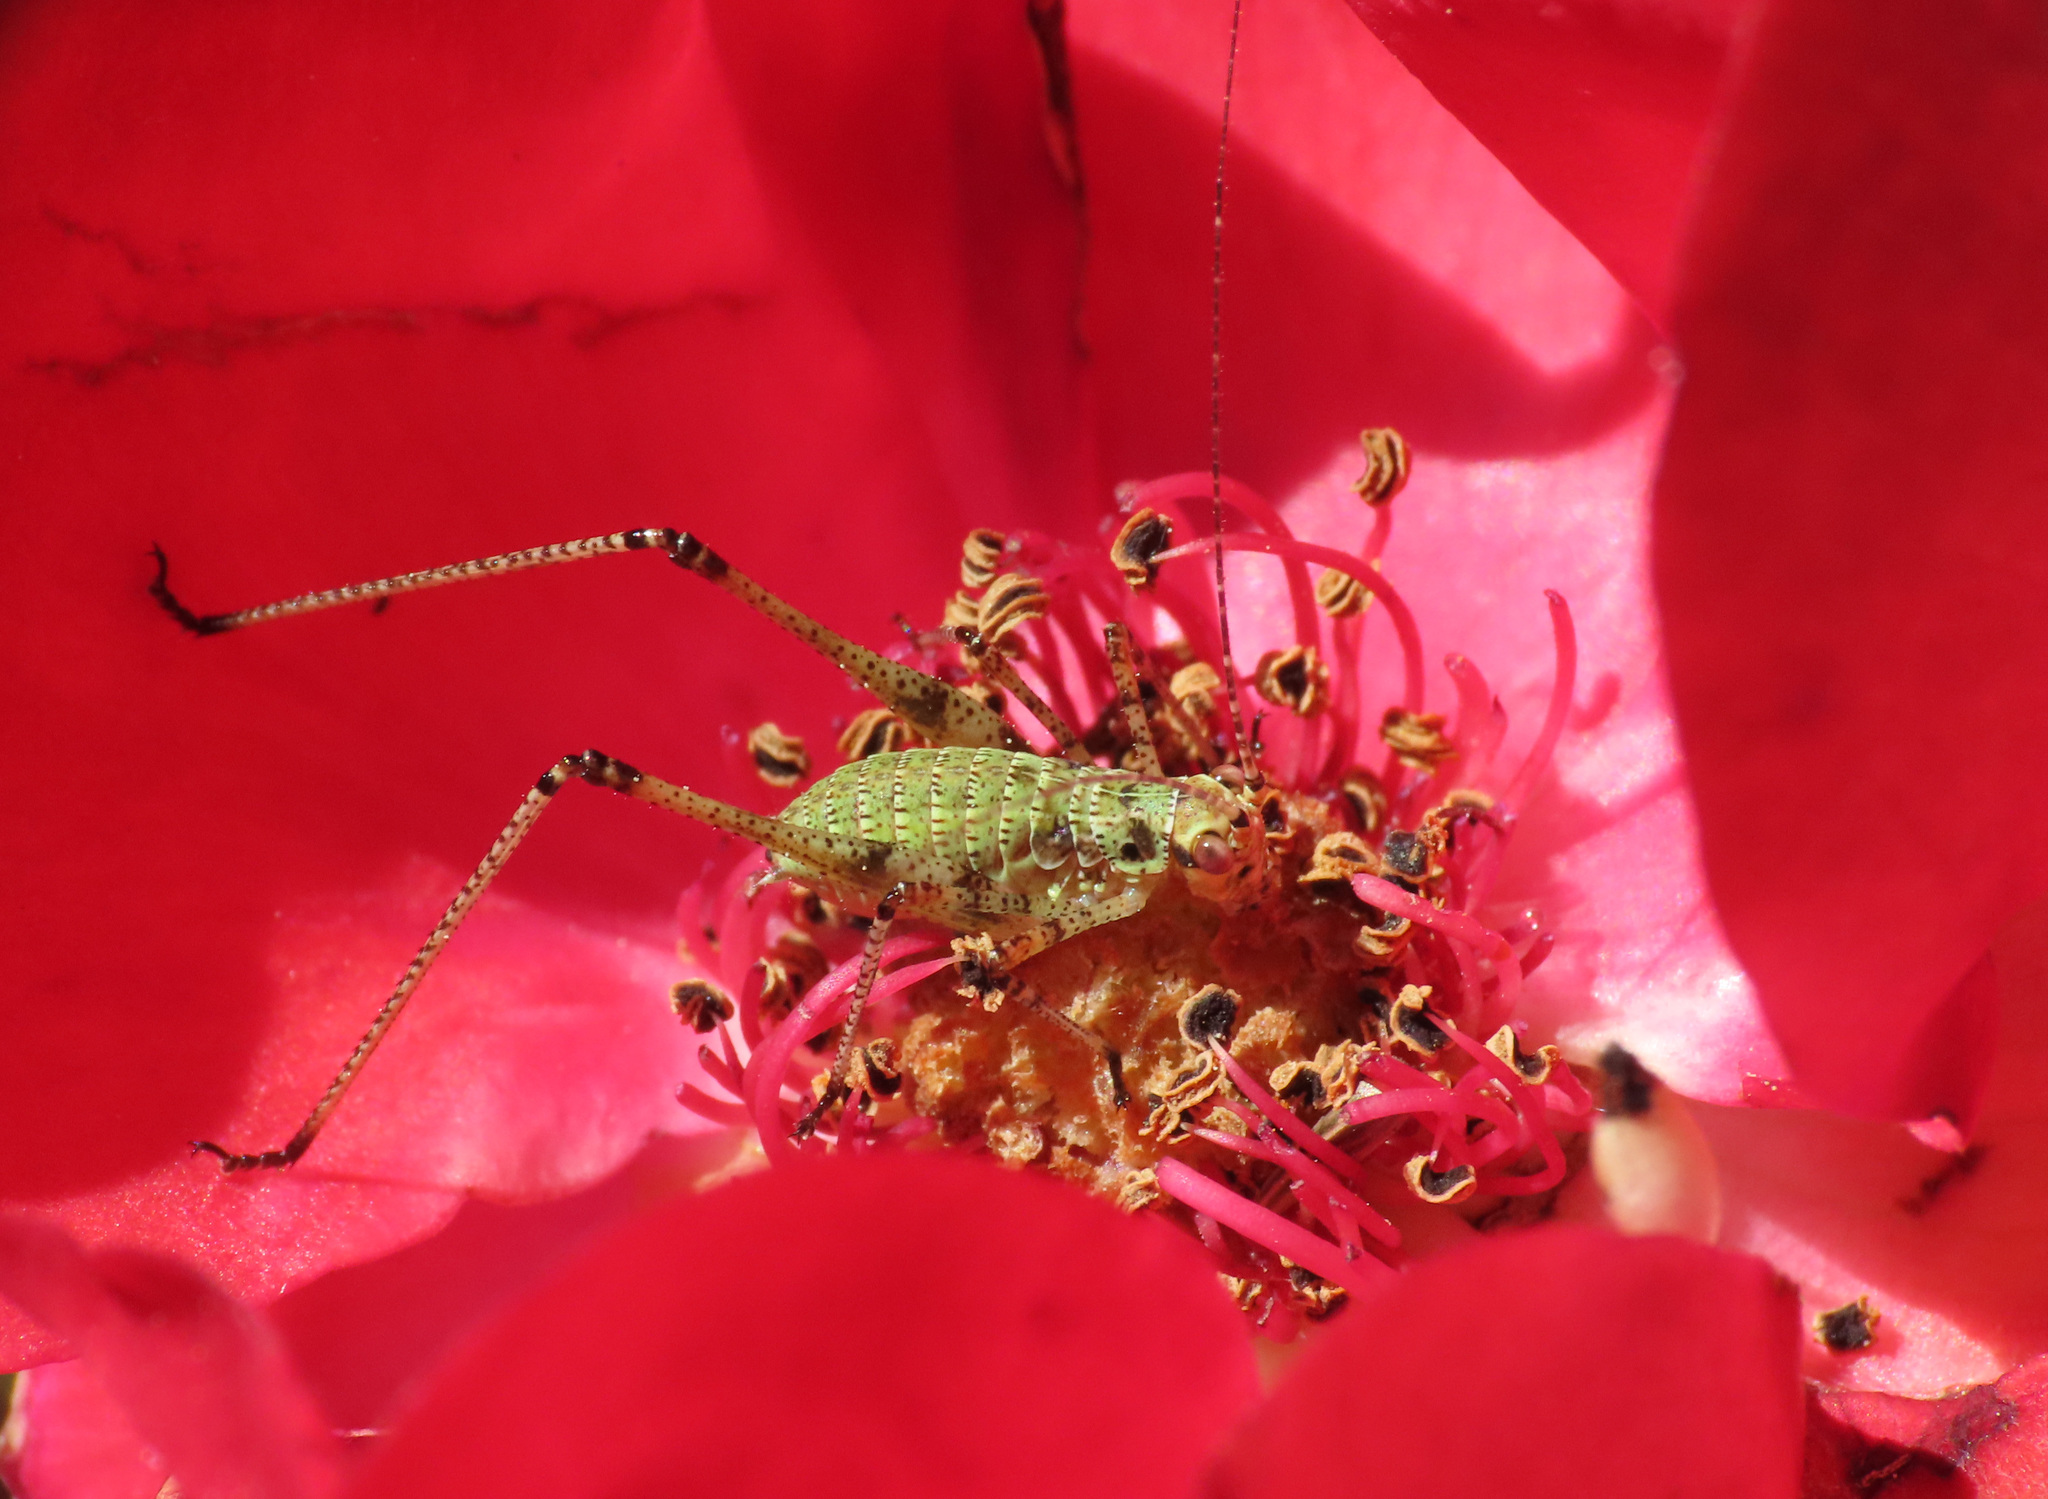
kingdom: Animalia
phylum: Arthropoda
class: Insecta
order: Orthoptera
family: Tettigoniidae
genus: Phaneroptera
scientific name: Phaneroptera nana
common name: Southern sickle bush-cricket
